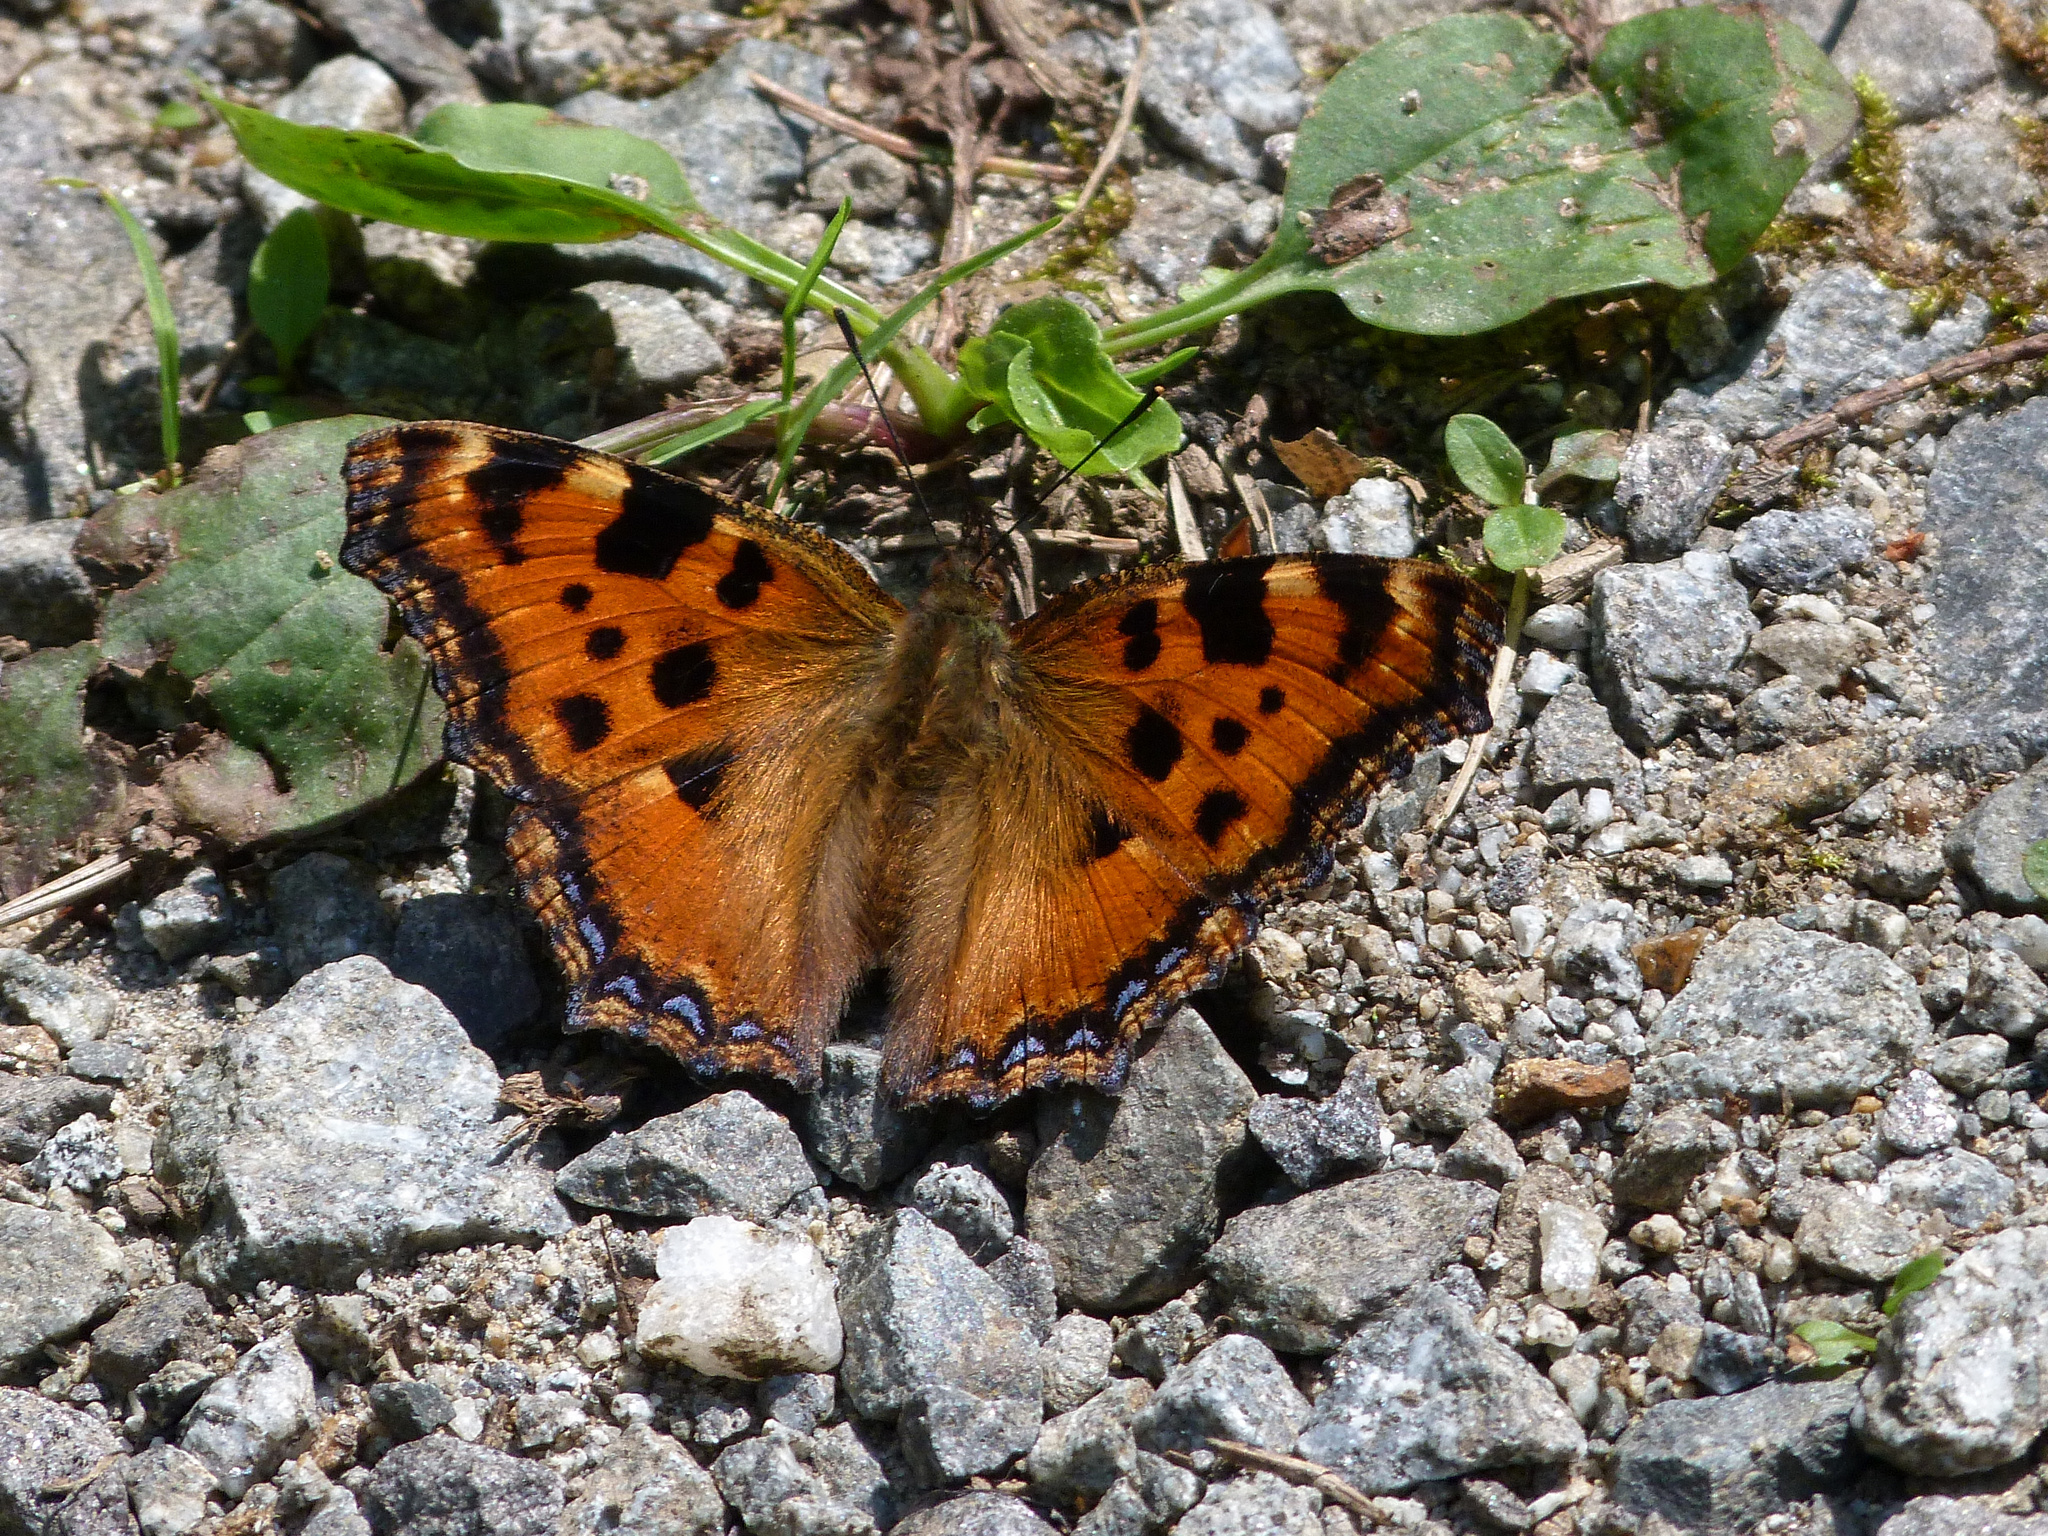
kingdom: Animalia
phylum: Arthropoda
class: Insecta
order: Lepidoptera
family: Nymphalidae
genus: Nymphalis
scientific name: Nymphalis polychloros
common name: Large tortoiseshell
